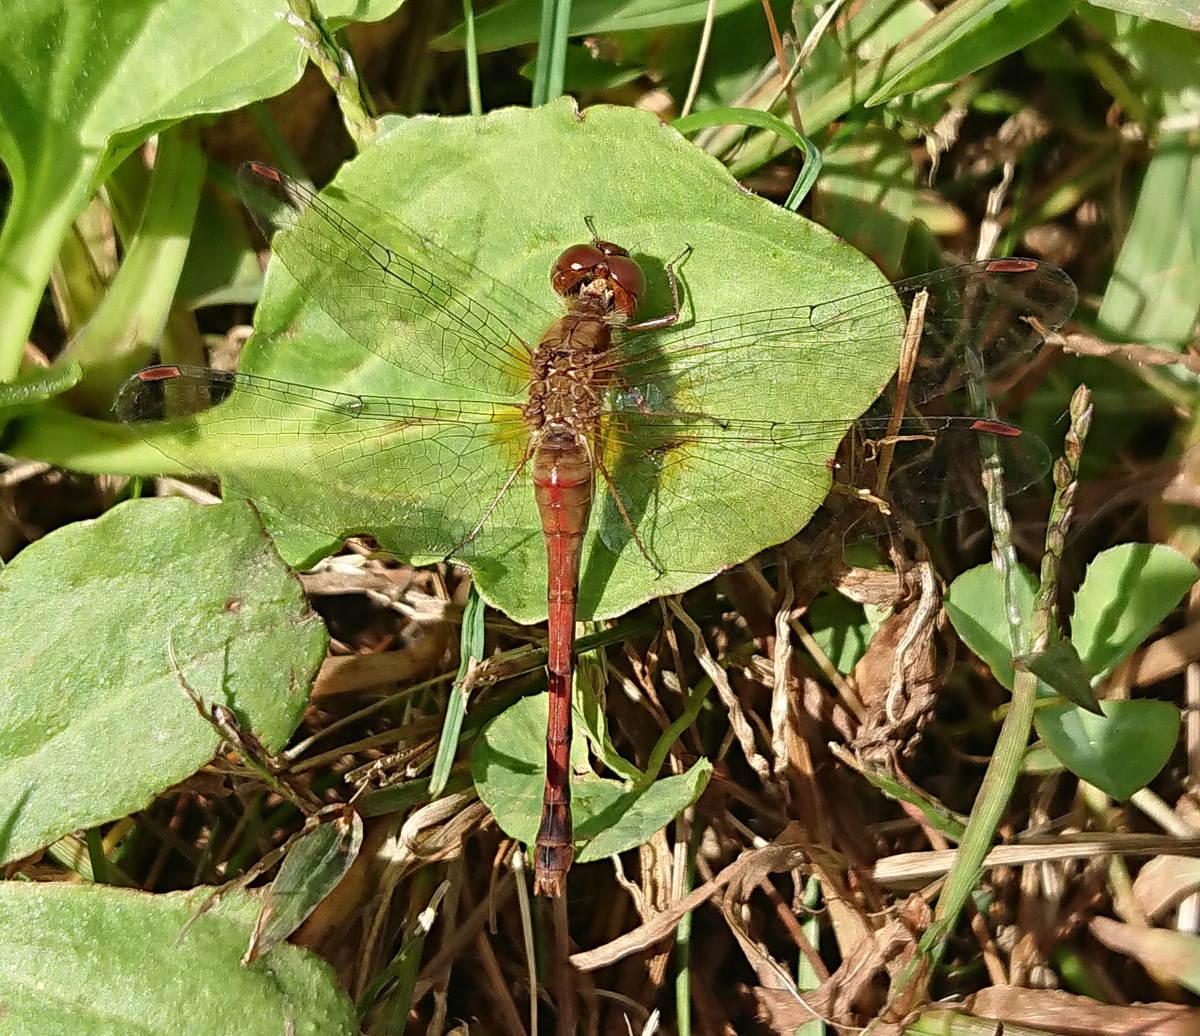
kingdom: Animalia
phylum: Arthropoda
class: Insecta
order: Odonata
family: Libellulidae
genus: Sympetrum
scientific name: Sympetrum vicinum
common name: Autumn meadowhawk
